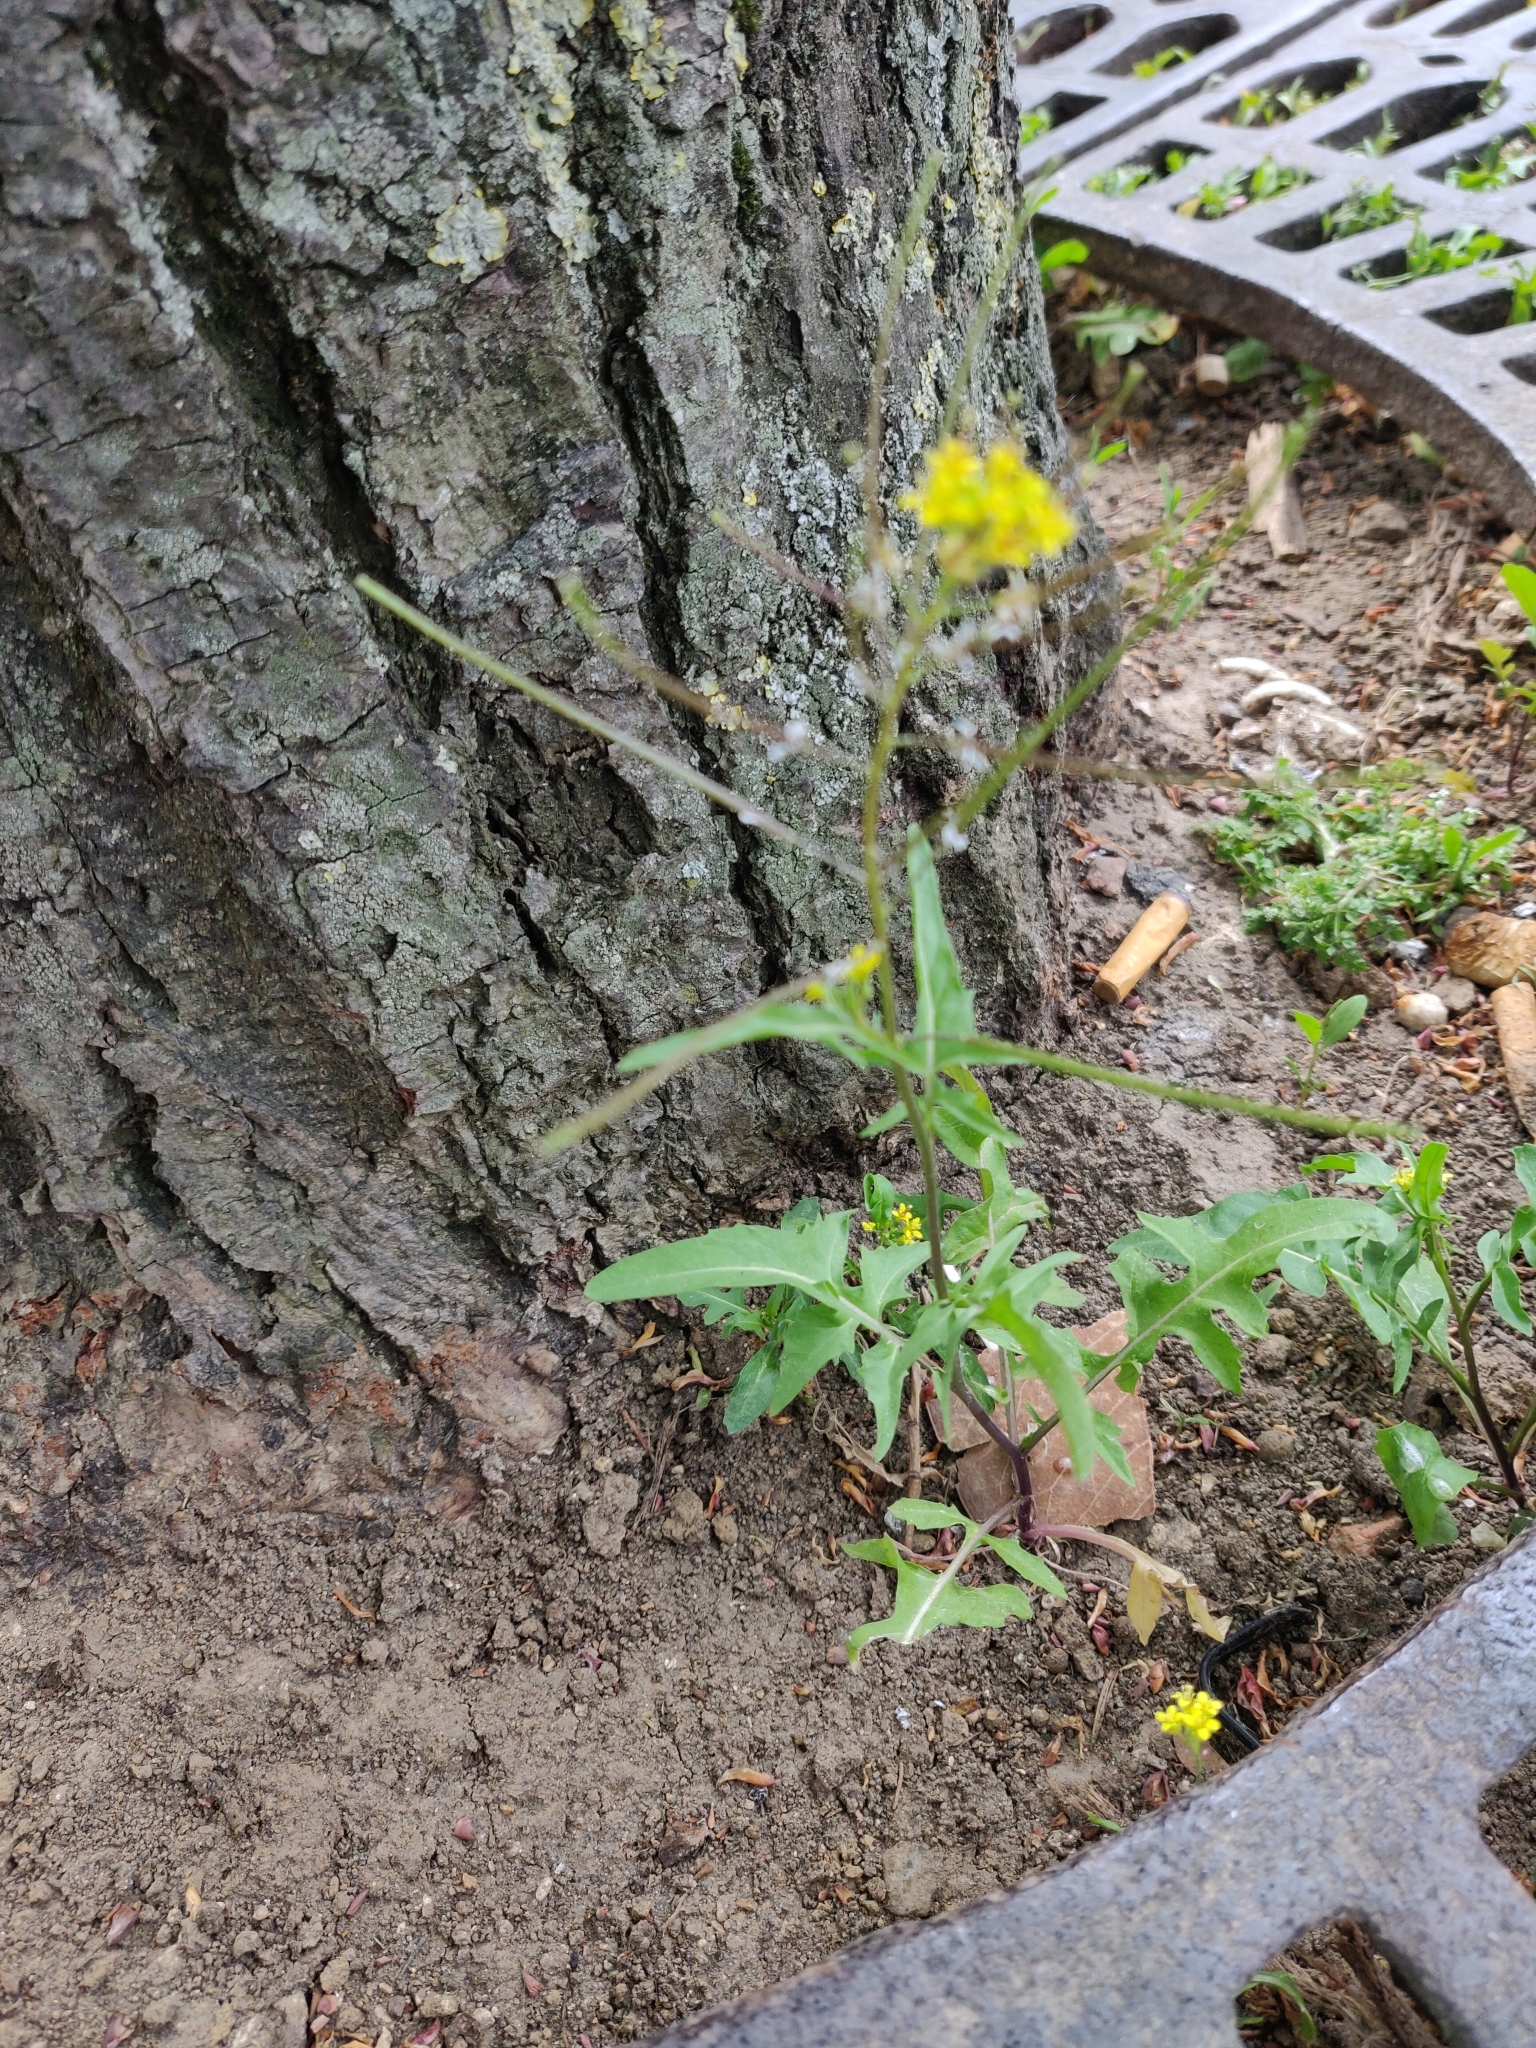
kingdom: Plantae
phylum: Tracheophyta
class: Magnoliopsida
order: Brassicales
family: Brassicaceae
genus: Sisymbrium
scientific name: Sisymbrium irio
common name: London rocket
